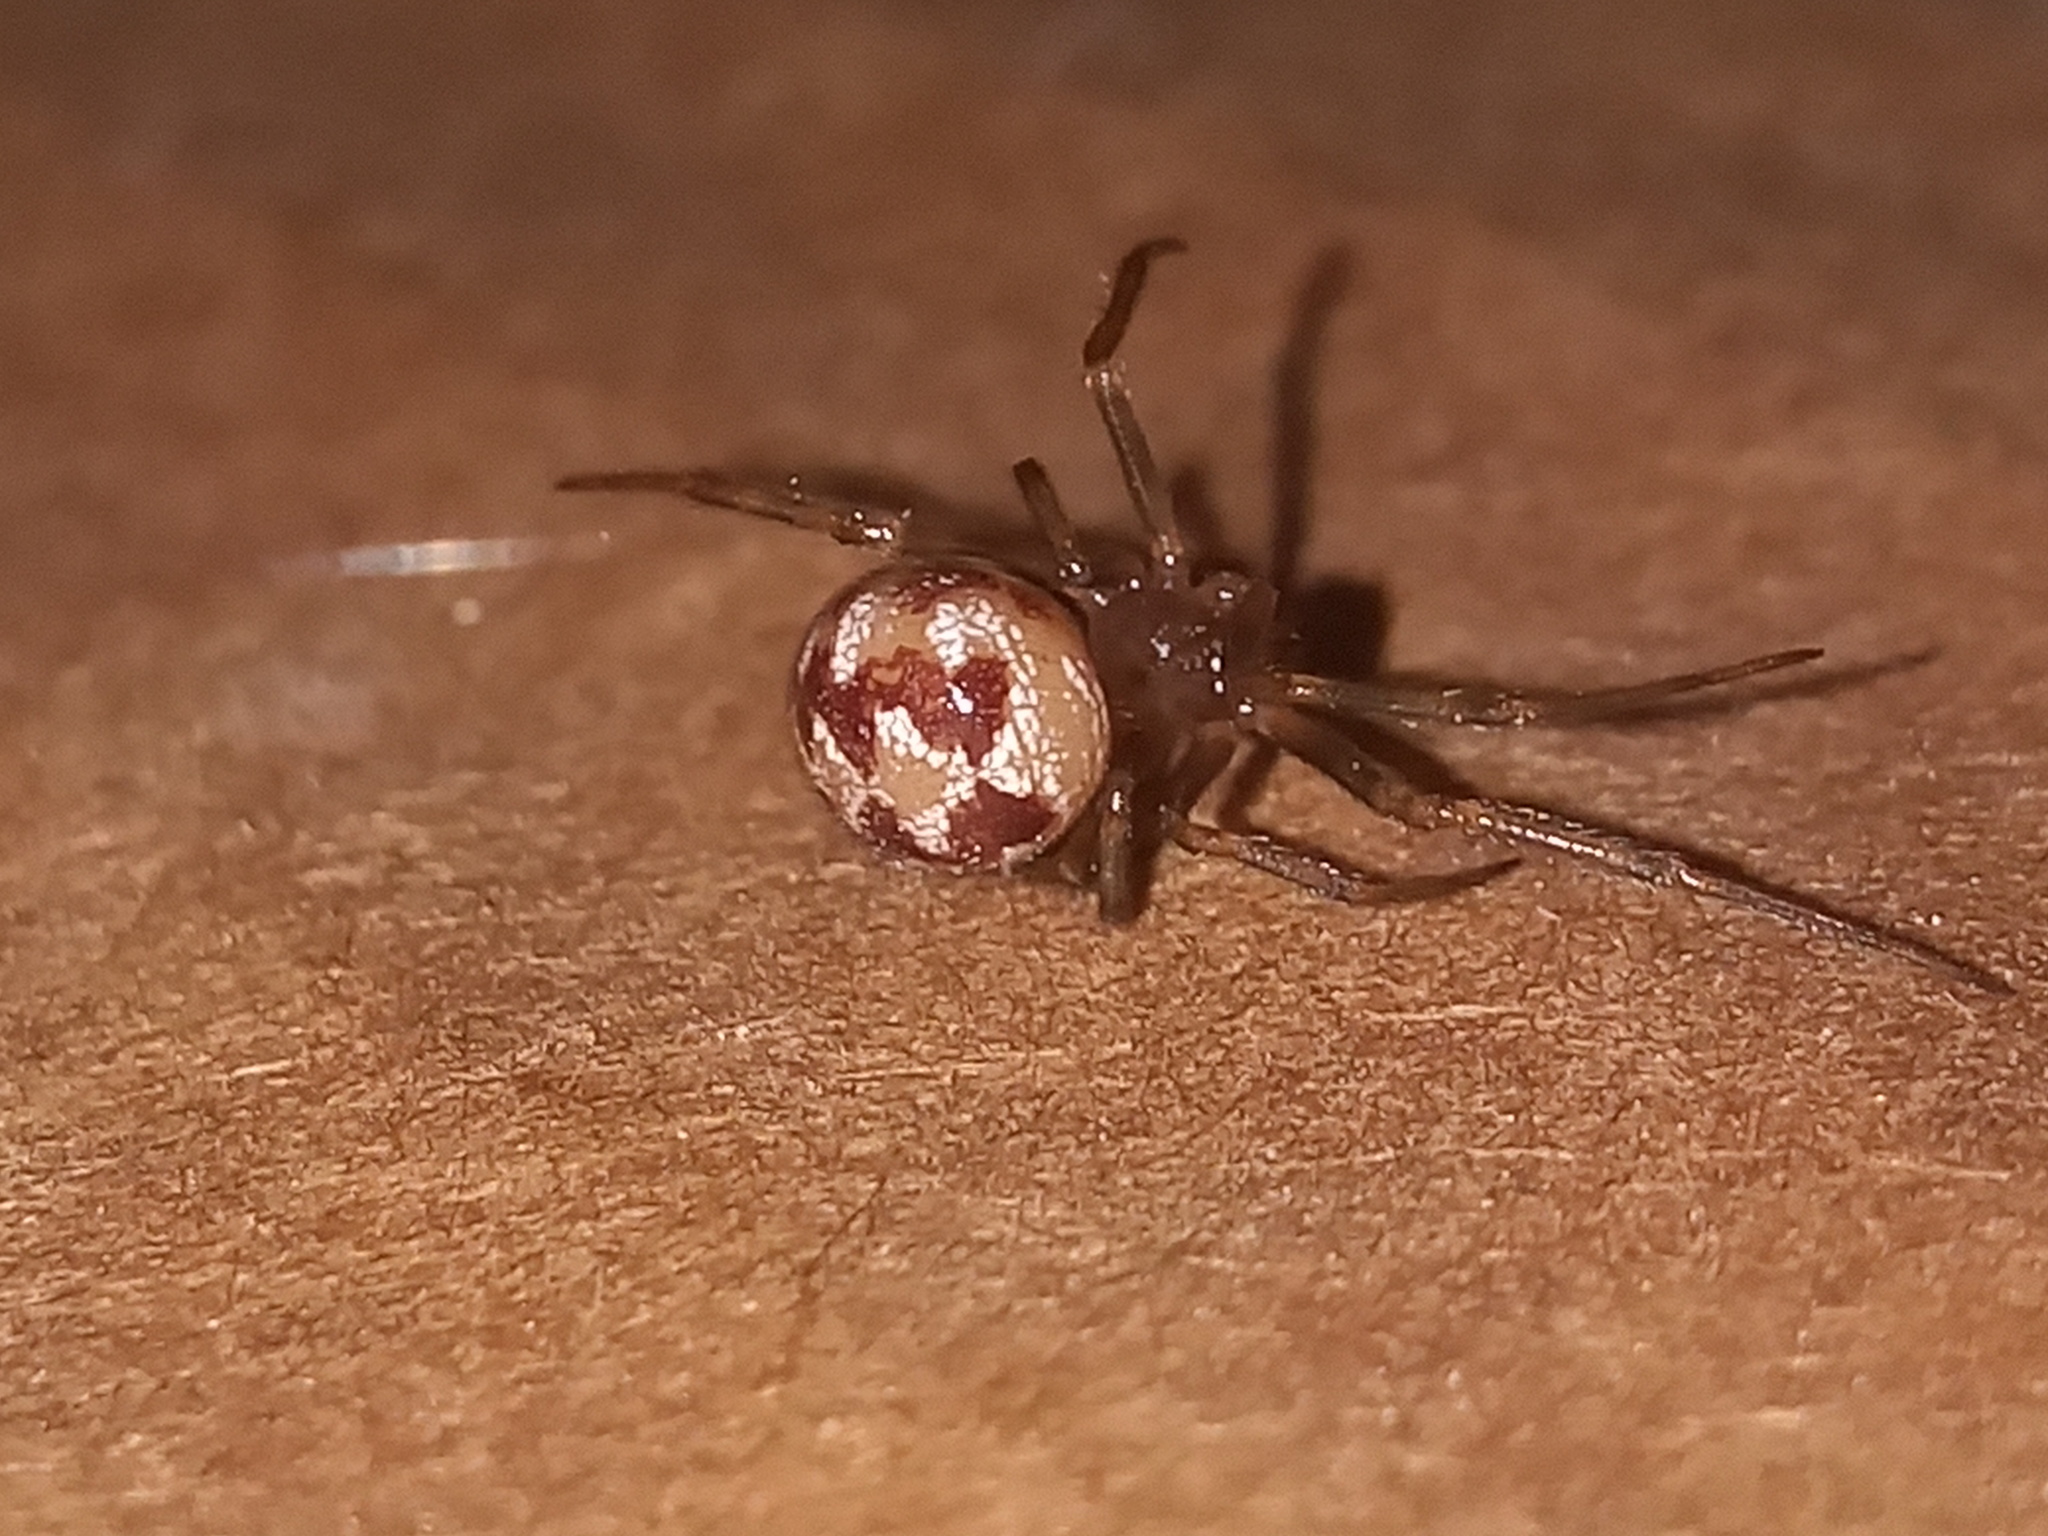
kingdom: Animalia
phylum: Arthropoda
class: Arachnida
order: Araneae
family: Theridiidae
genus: Steatoda
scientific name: Steatoda triangulosa
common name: Triangulate bud spider
